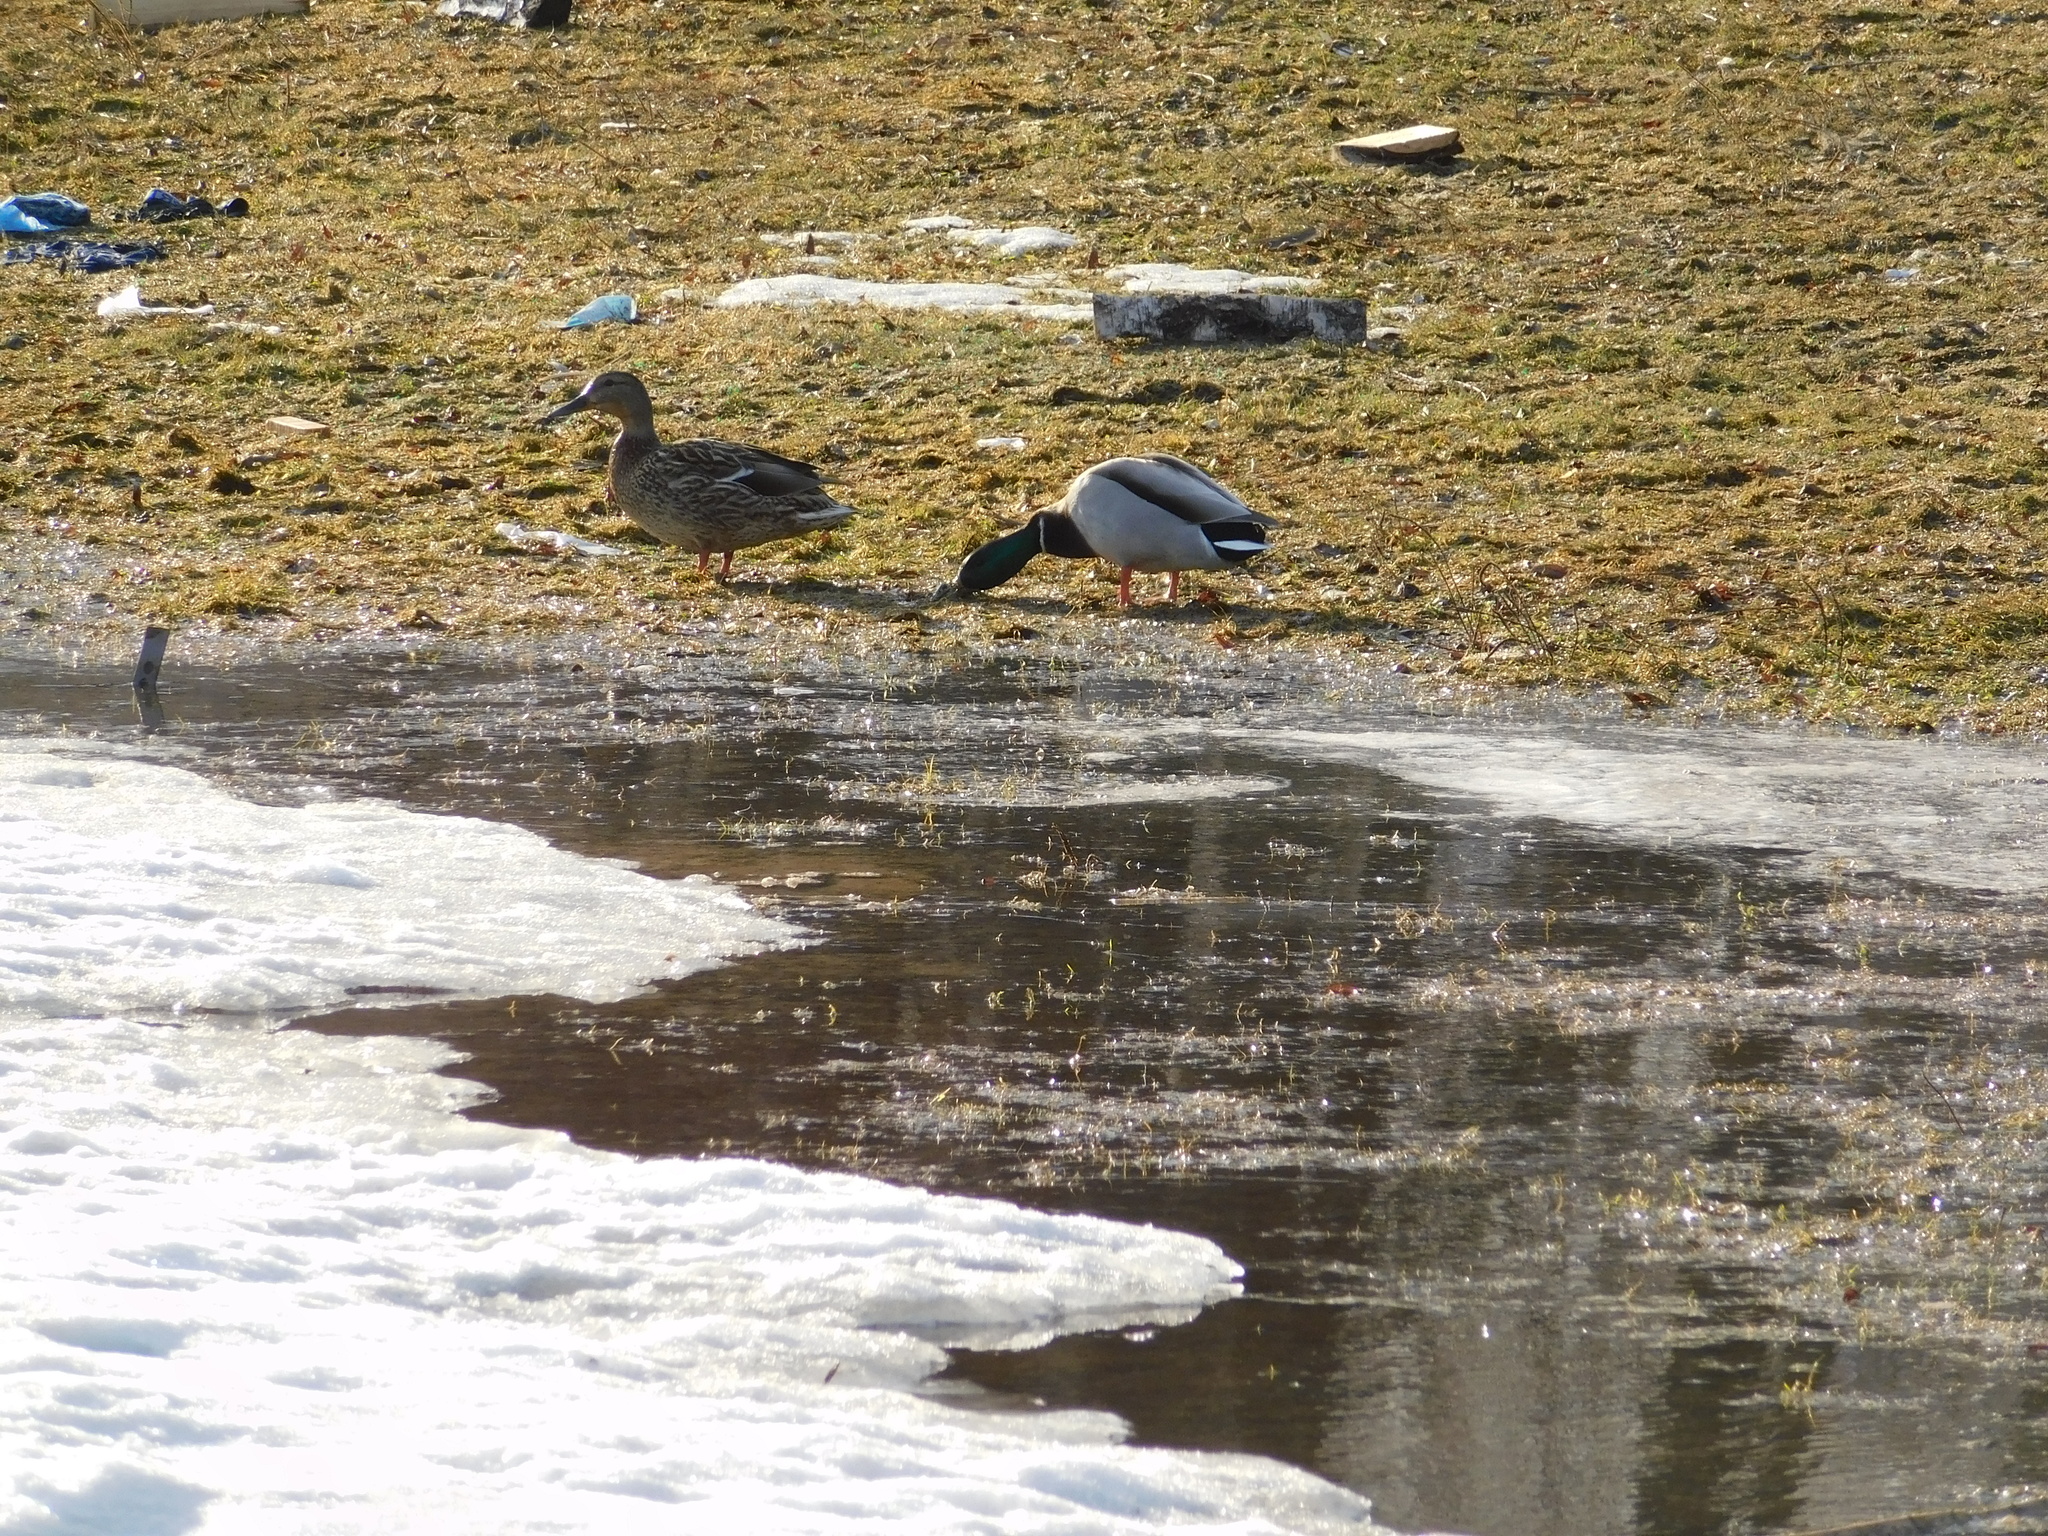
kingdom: Animalia
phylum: Chordata
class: Aves
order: Anseriformes
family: Anatidae
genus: Anas
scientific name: Anas platyrhynchos
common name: Mallard
